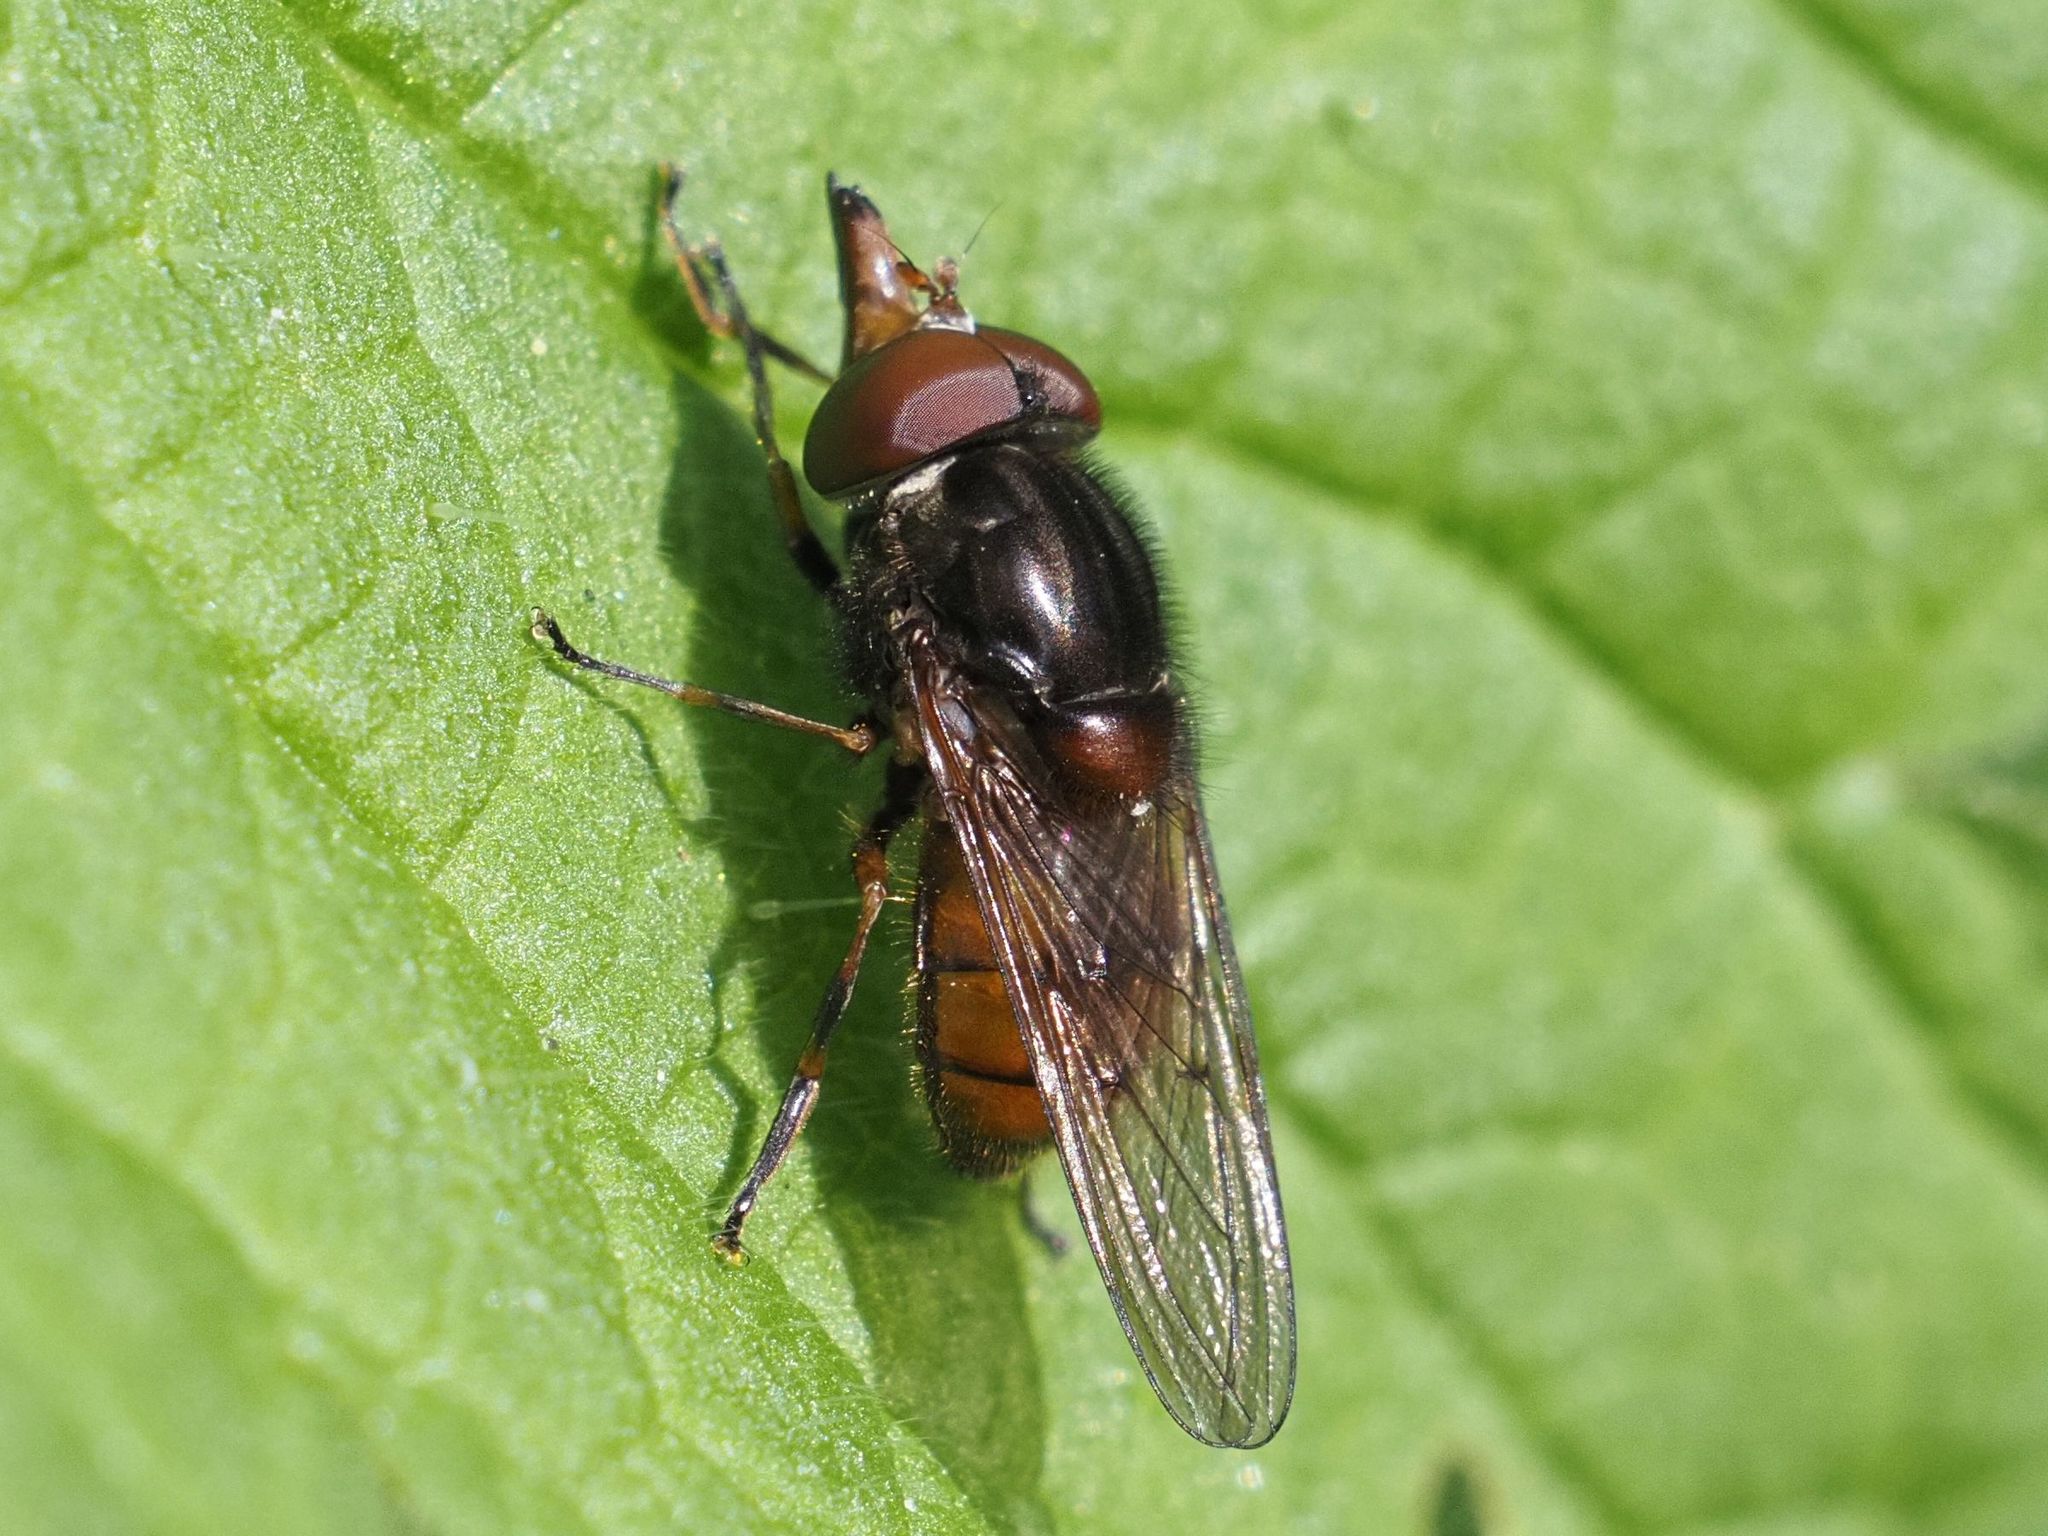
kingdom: Animalia
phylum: Arthropoda
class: Insecta
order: Diptera
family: Syrphidae
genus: Rhingia
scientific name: Rhingia campestris
